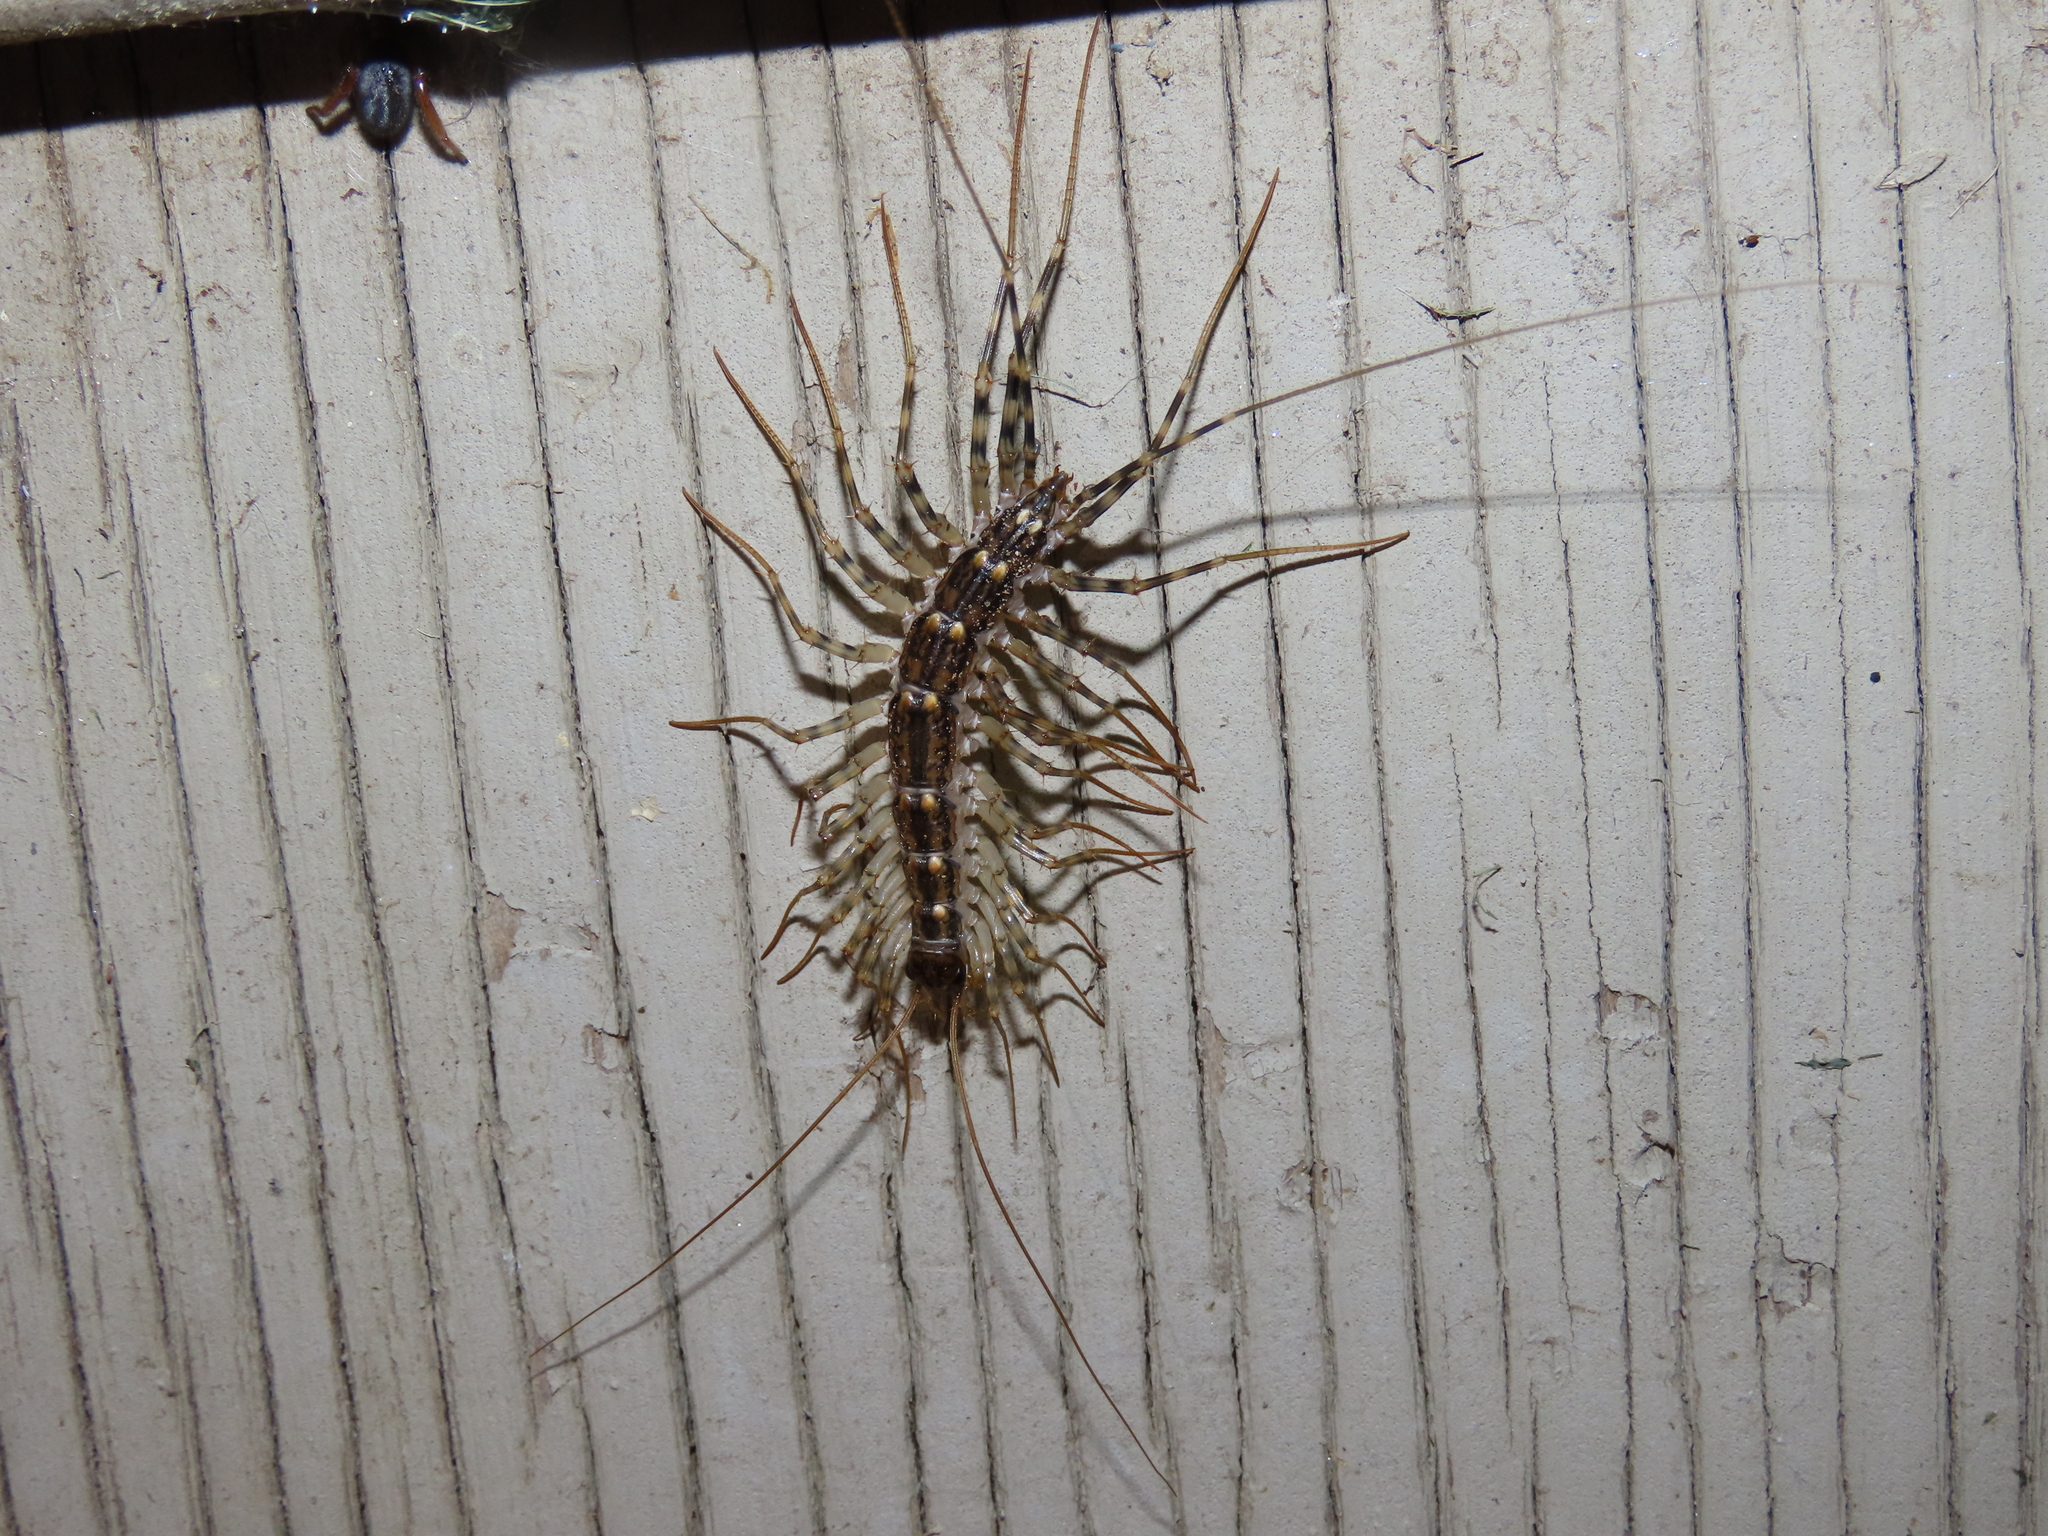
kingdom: Animalia
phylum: Arthropoda
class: Chilopoda
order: Scutigeromorpha
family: Scutigeridae
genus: Thereuonema
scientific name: Thereuonema tuberculata
